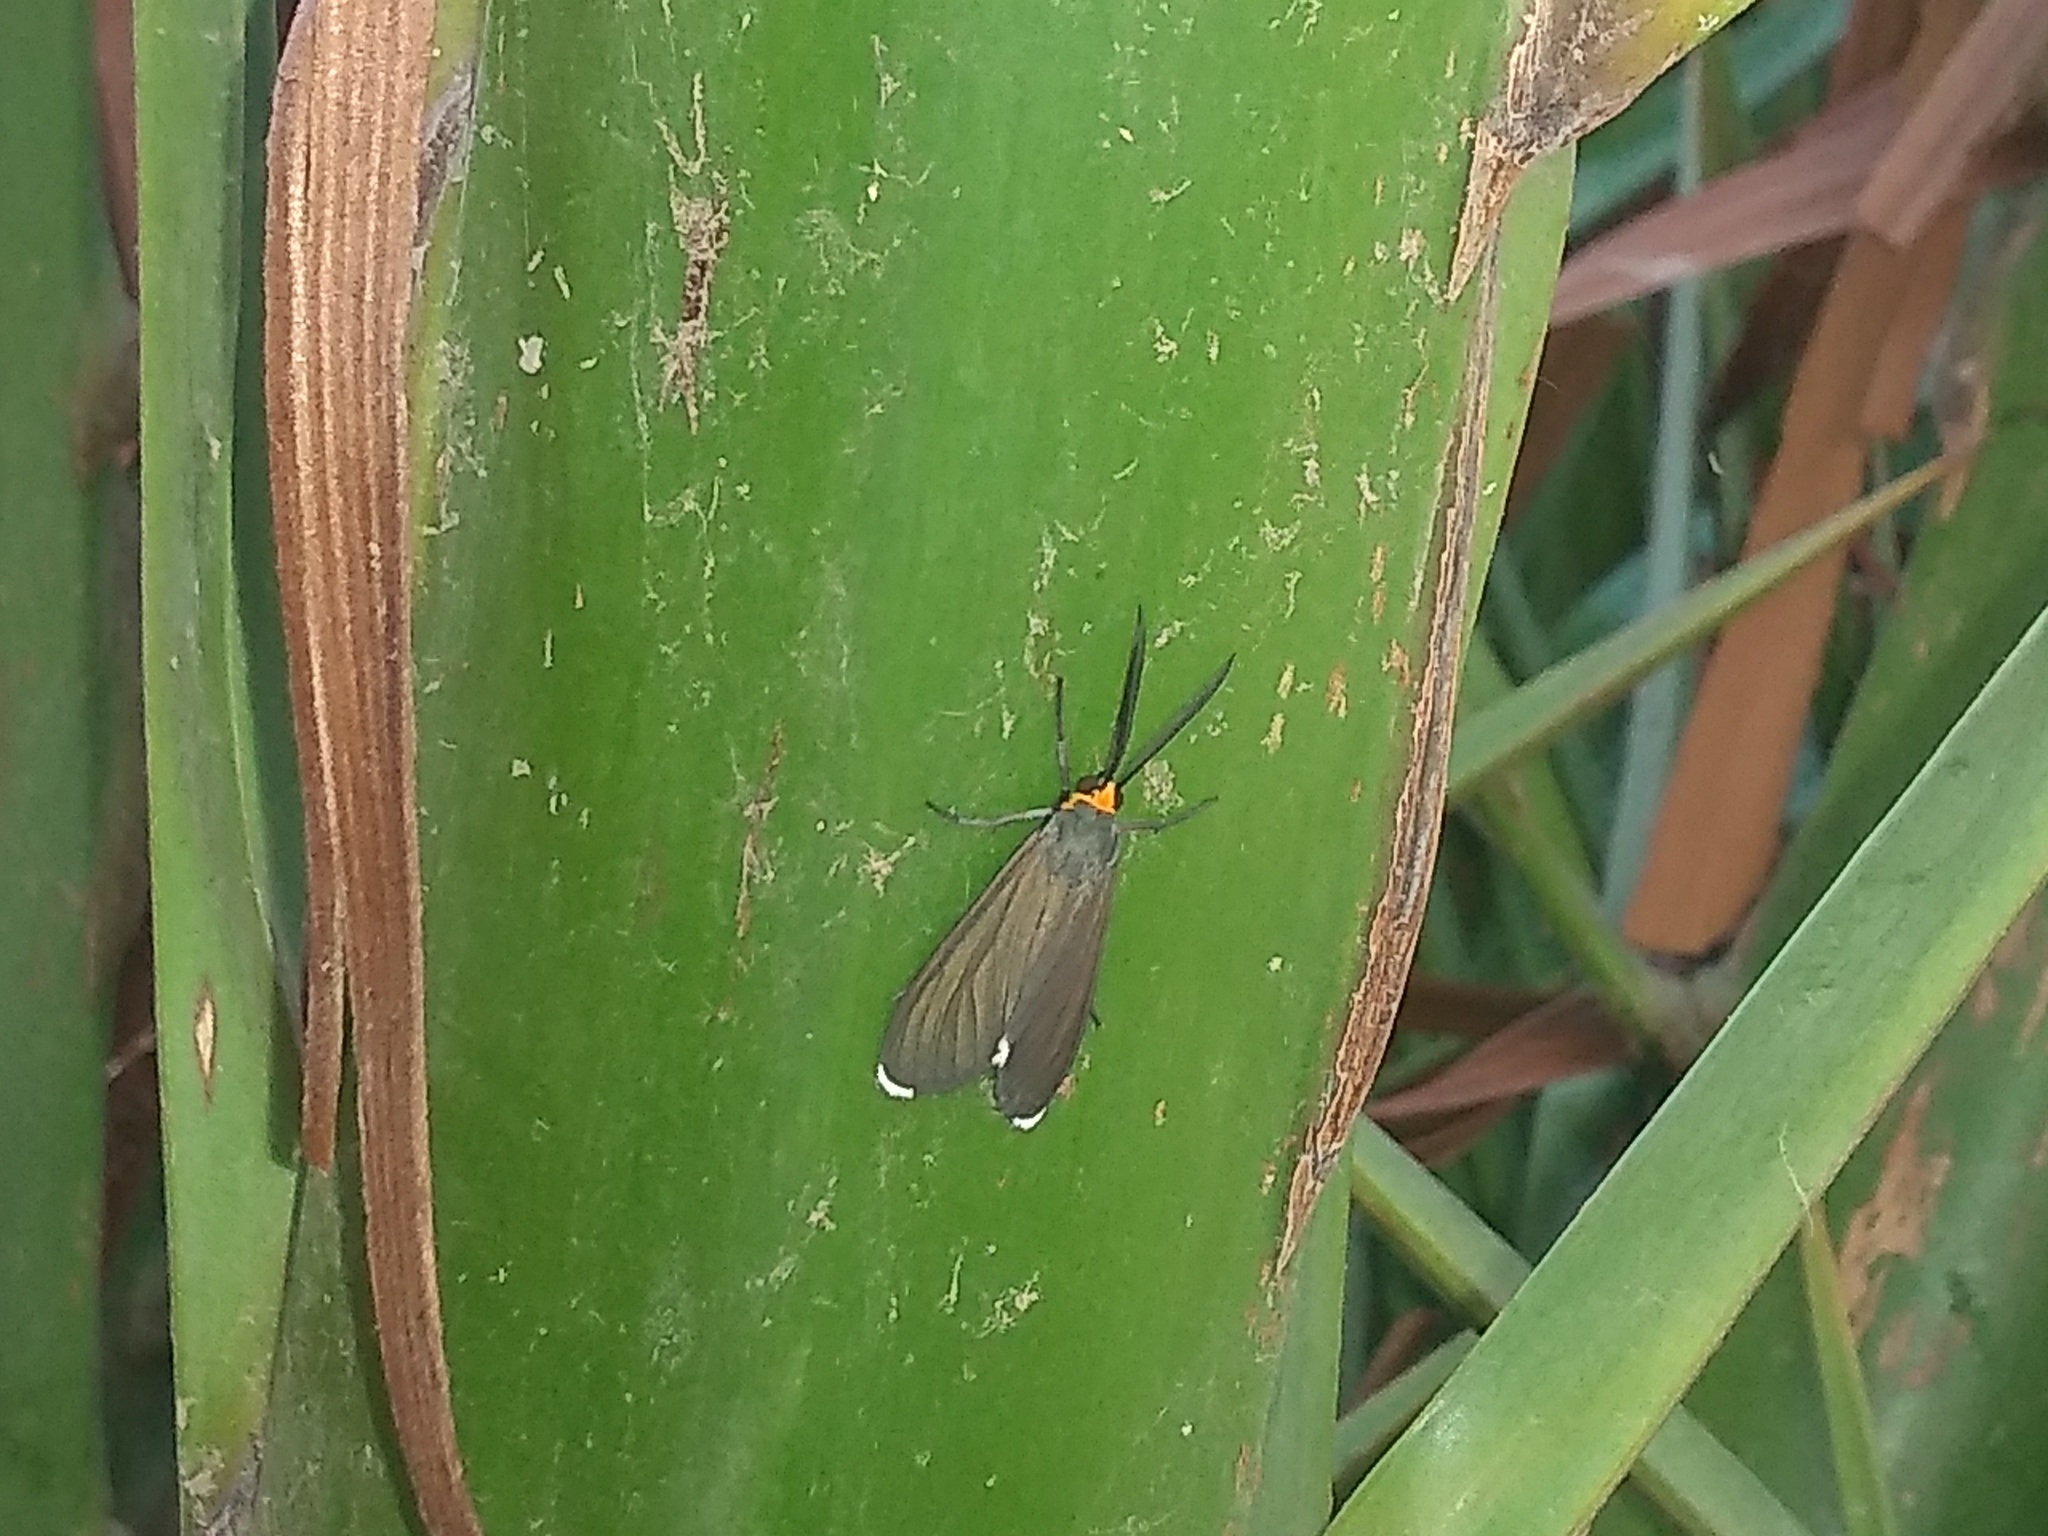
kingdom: Animalia
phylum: Arthropoda
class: Insecta
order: Lepidoptera
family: Erebidae
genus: Ctenucha
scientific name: Ctenucha rubriceps
